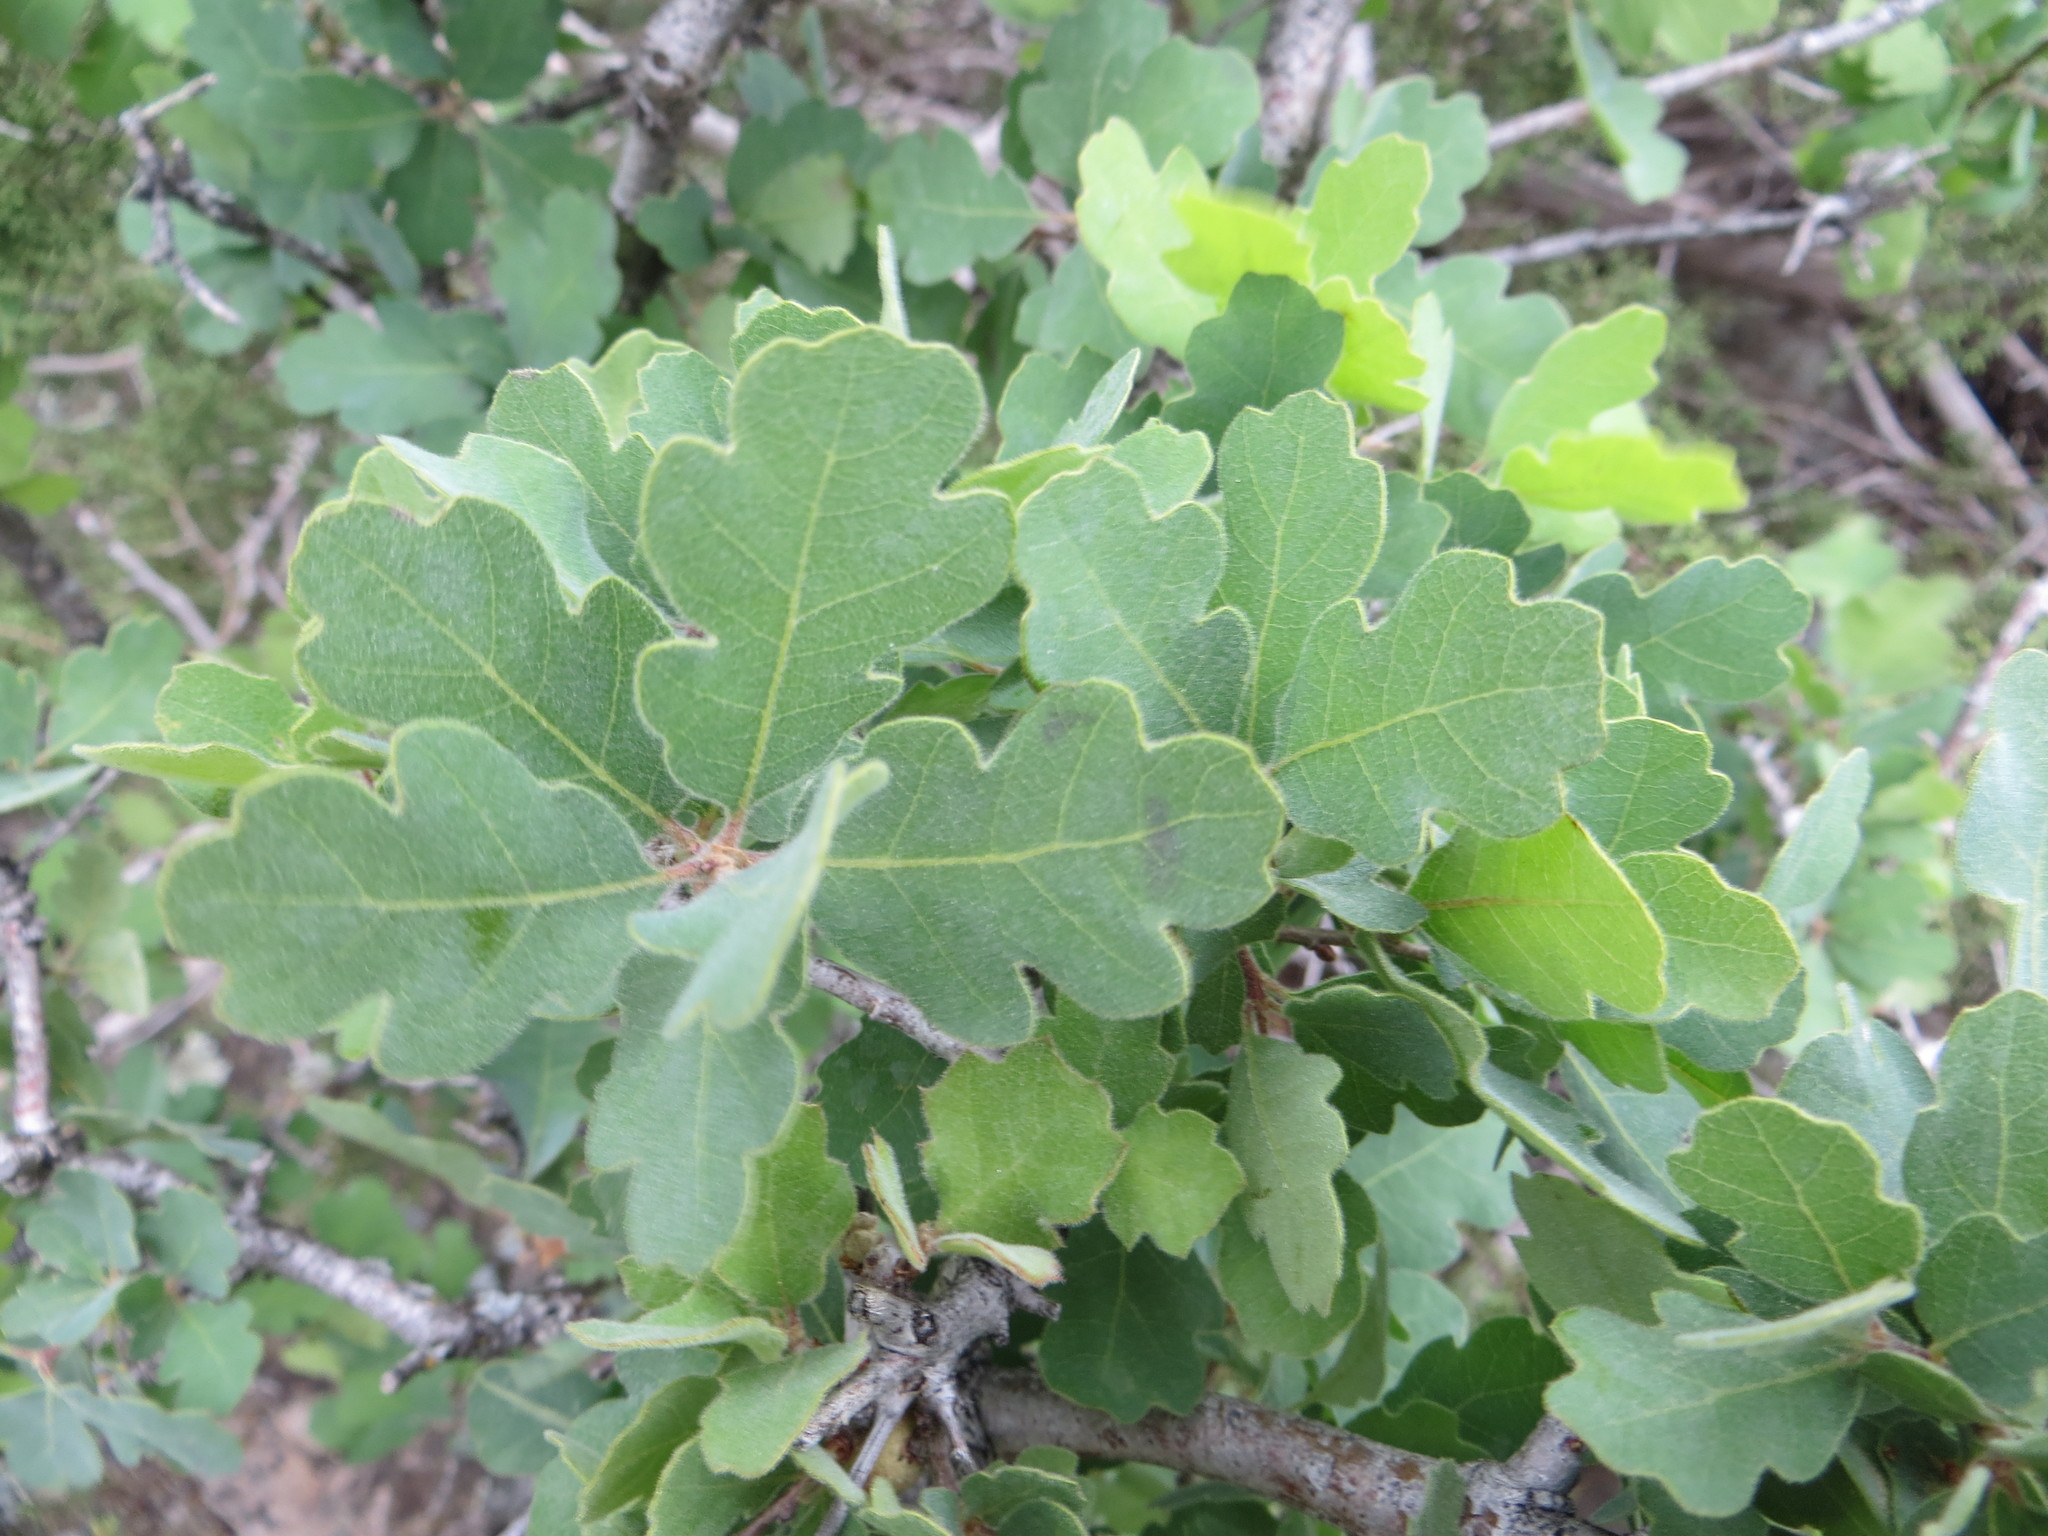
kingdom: Plantae
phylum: Tracheophyta
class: Magnoliopsida
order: Fagales
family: Fagaceae
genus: Quercus
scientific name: Quercus douglasii
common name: Blue oak
